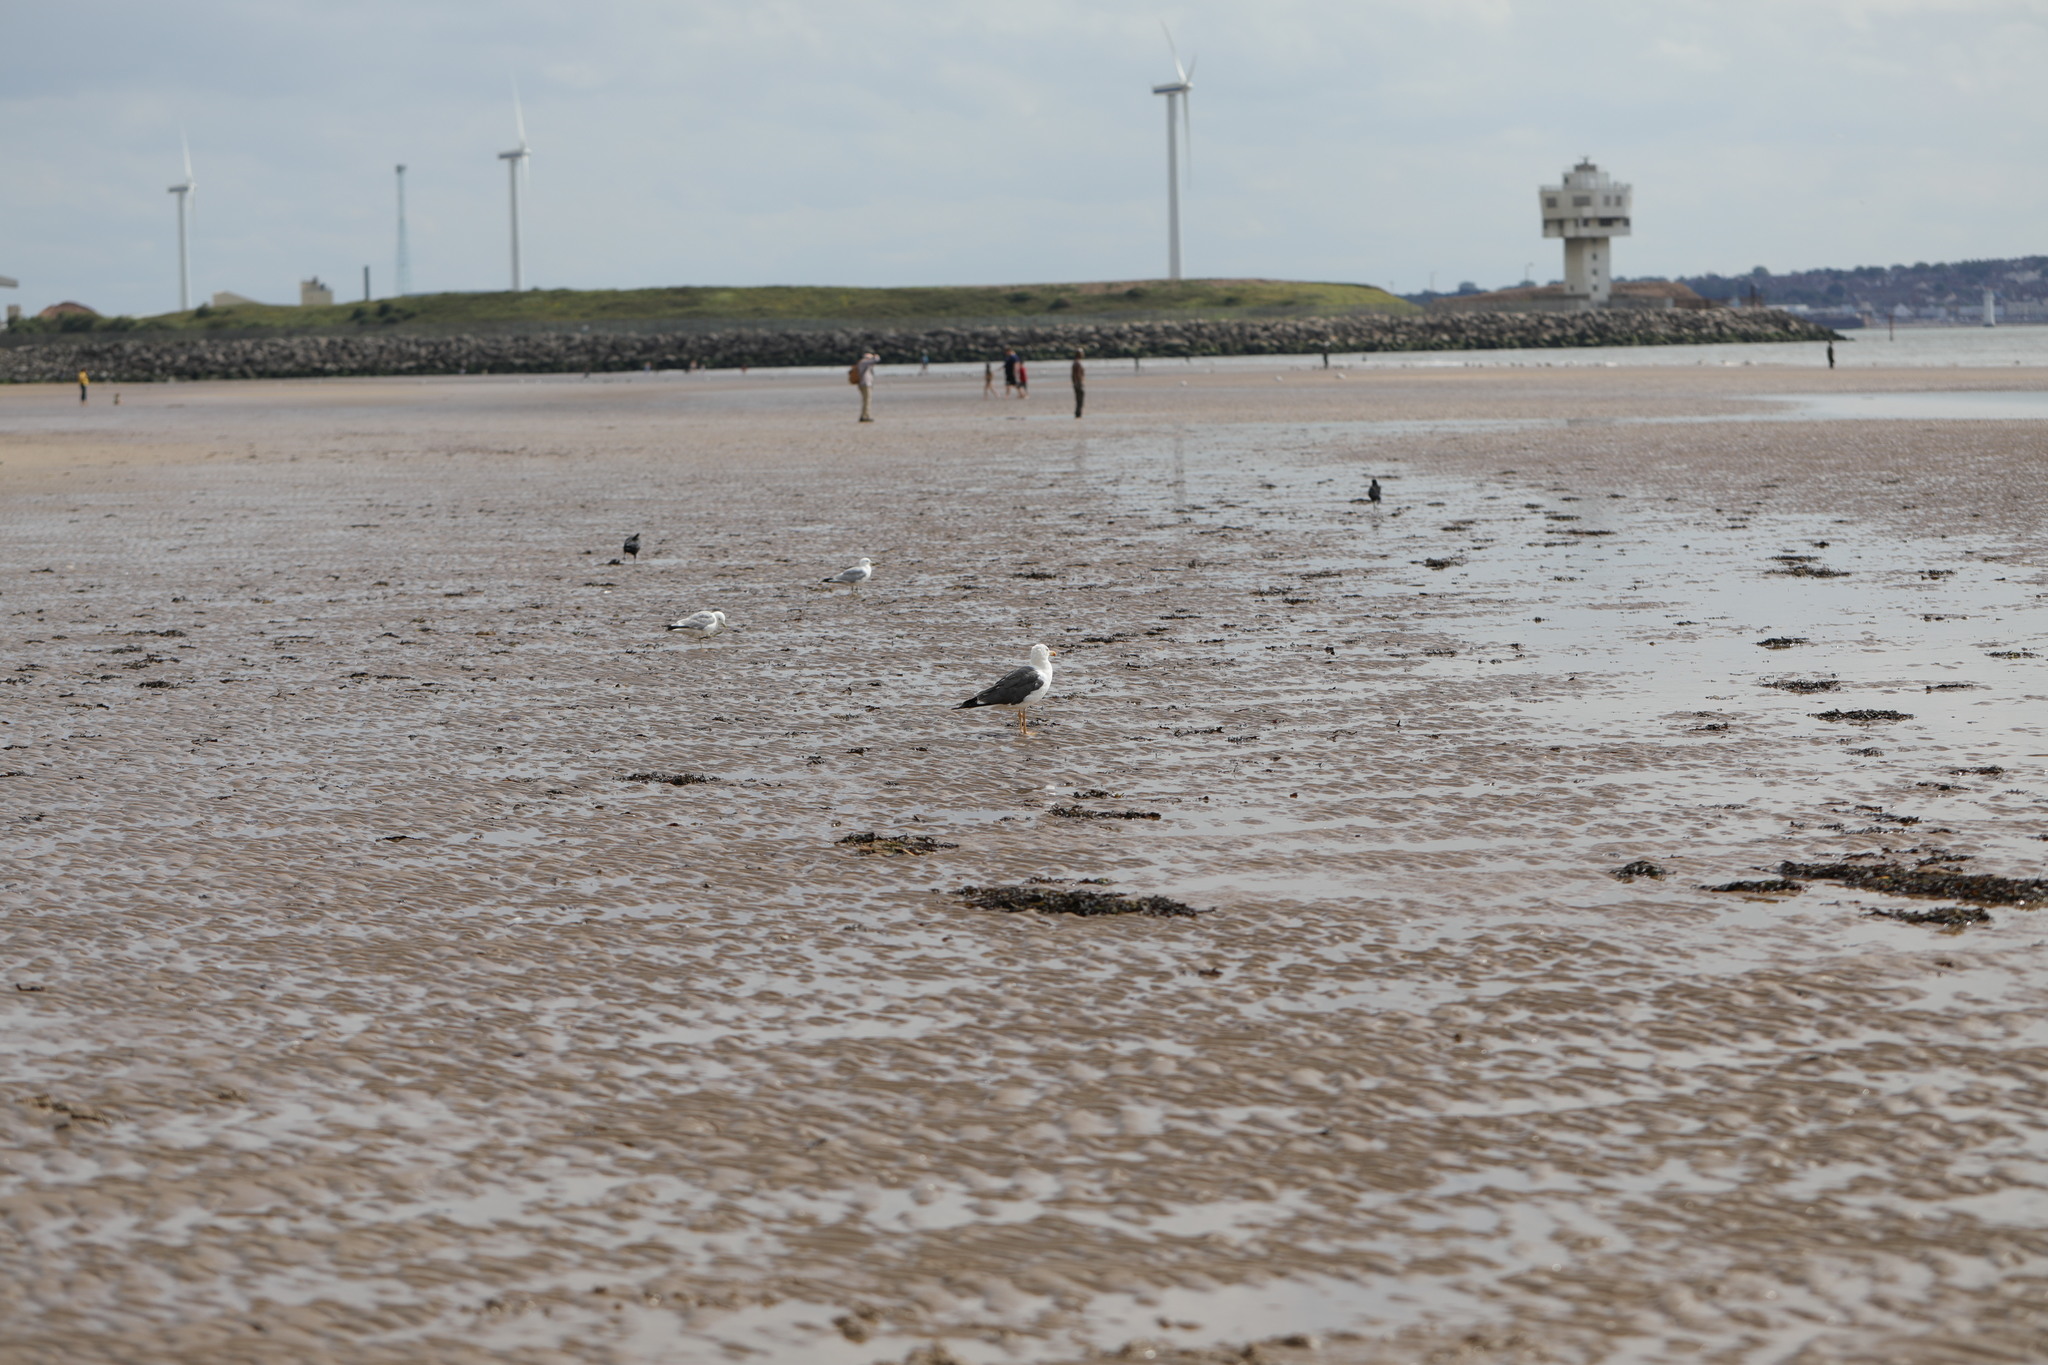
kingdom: Animalia
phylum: Chordata
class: Aves
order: Charadriiformes
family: Laridae
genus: Larus
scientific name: Larus fuscus
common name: Lesser black-backed gull
